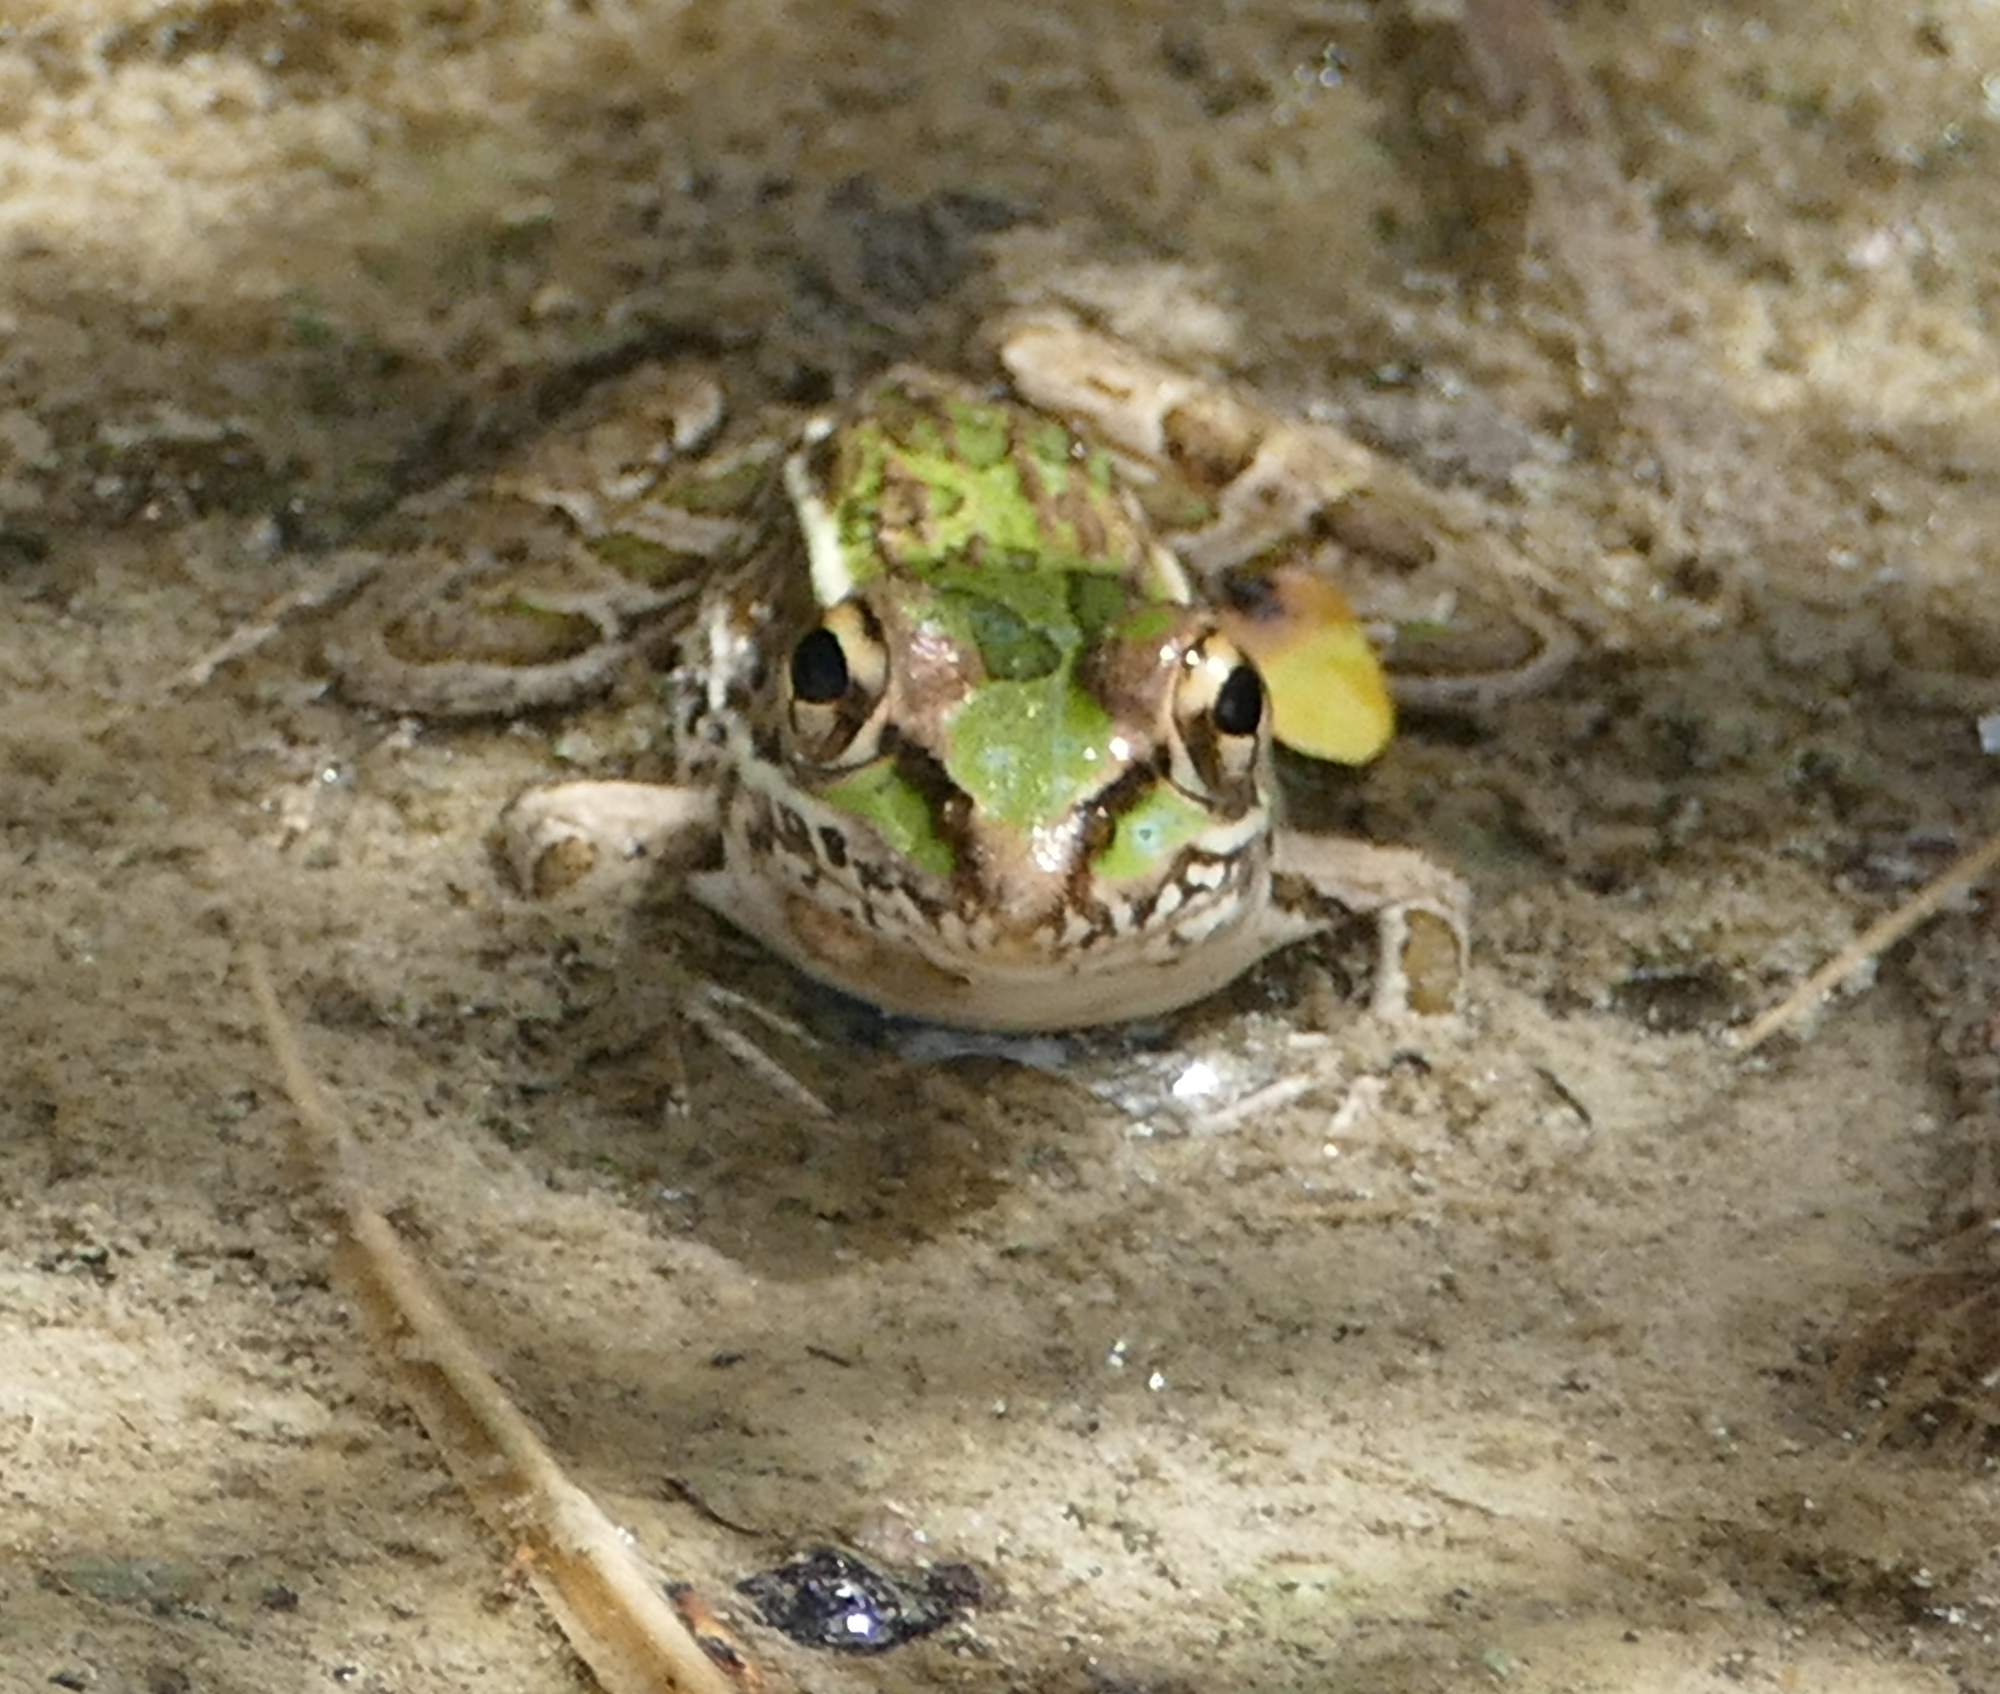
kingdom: Animalia
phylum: Chordata
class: Amphibia
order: Anura
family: Ranidae
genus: Lithobates
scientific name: Lithobates berlandieri
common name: Rio grande leopard frog
